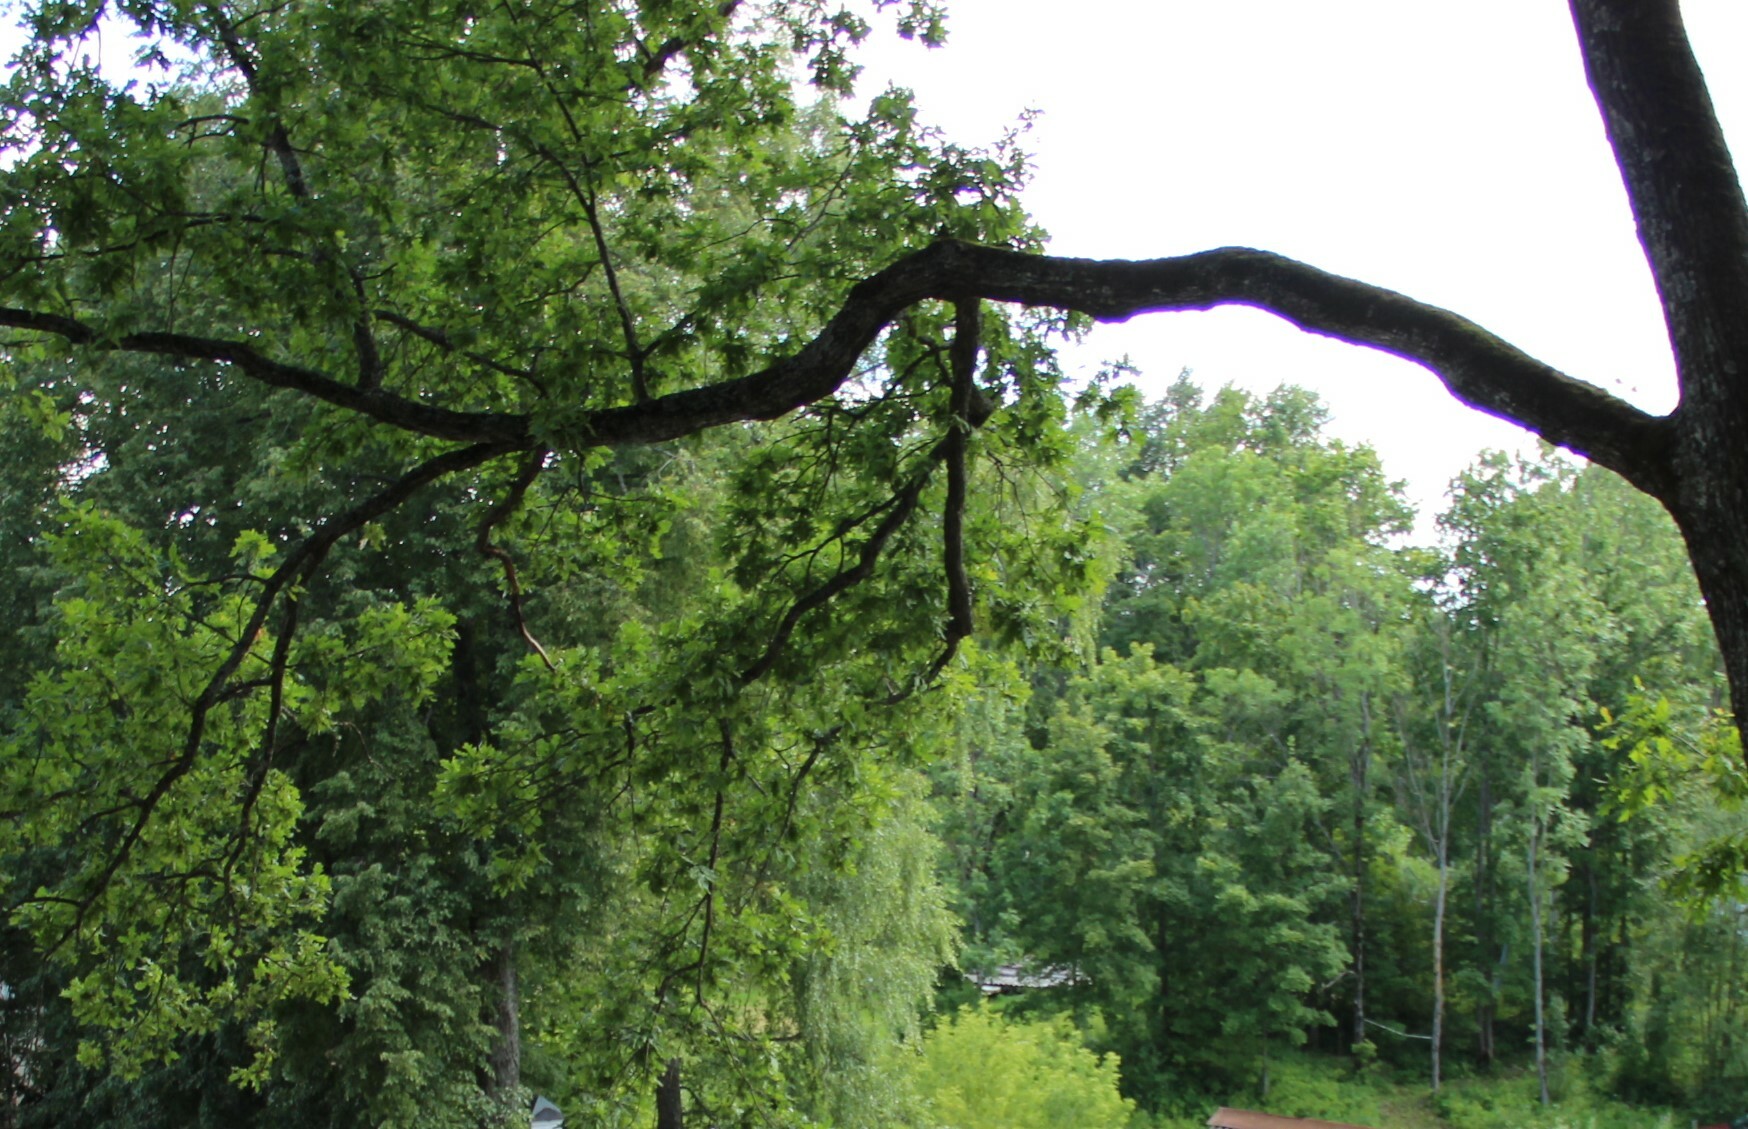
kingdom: Plantae
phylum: Tracheophyta
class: Magnoliopsida
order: Fagales
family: Fagaceae
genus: Quercus
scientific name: Quercus robur
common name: Pedunculate oak
